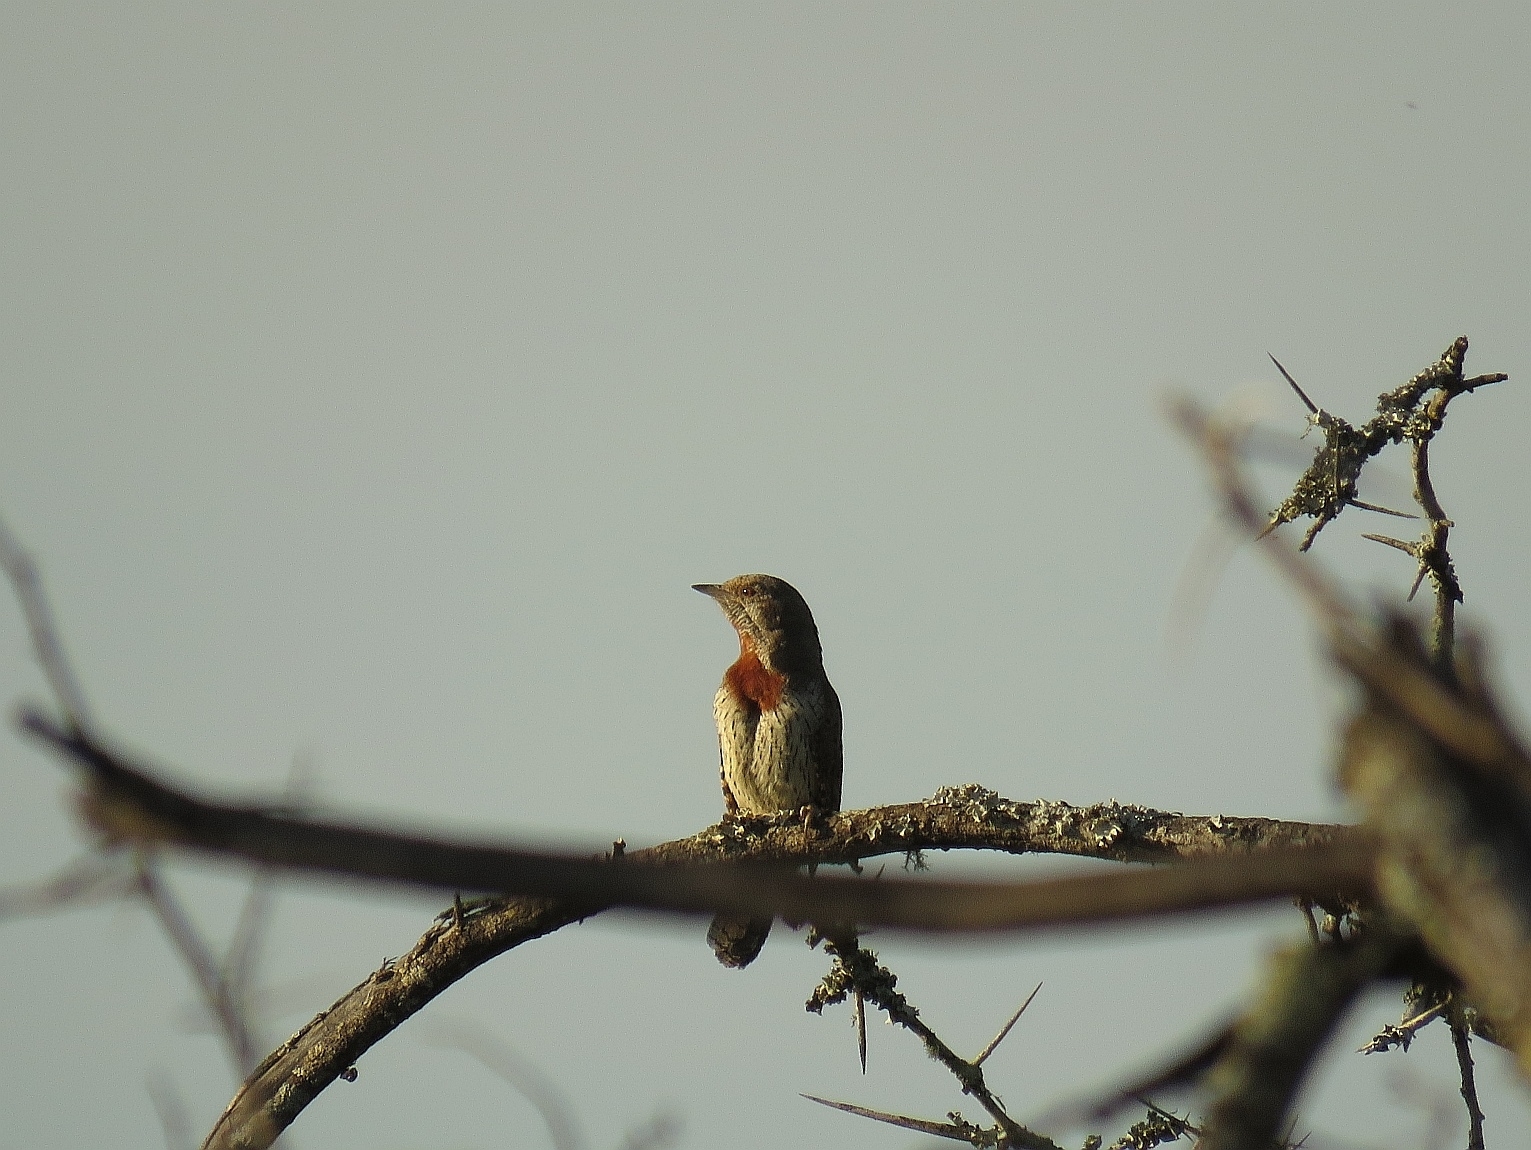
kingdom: Animalia
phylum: Chordata
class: Aves
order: Piciformes
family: Picidae
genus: Jynx
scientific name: Jynx ruficollis
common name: Red-throated wryneck
